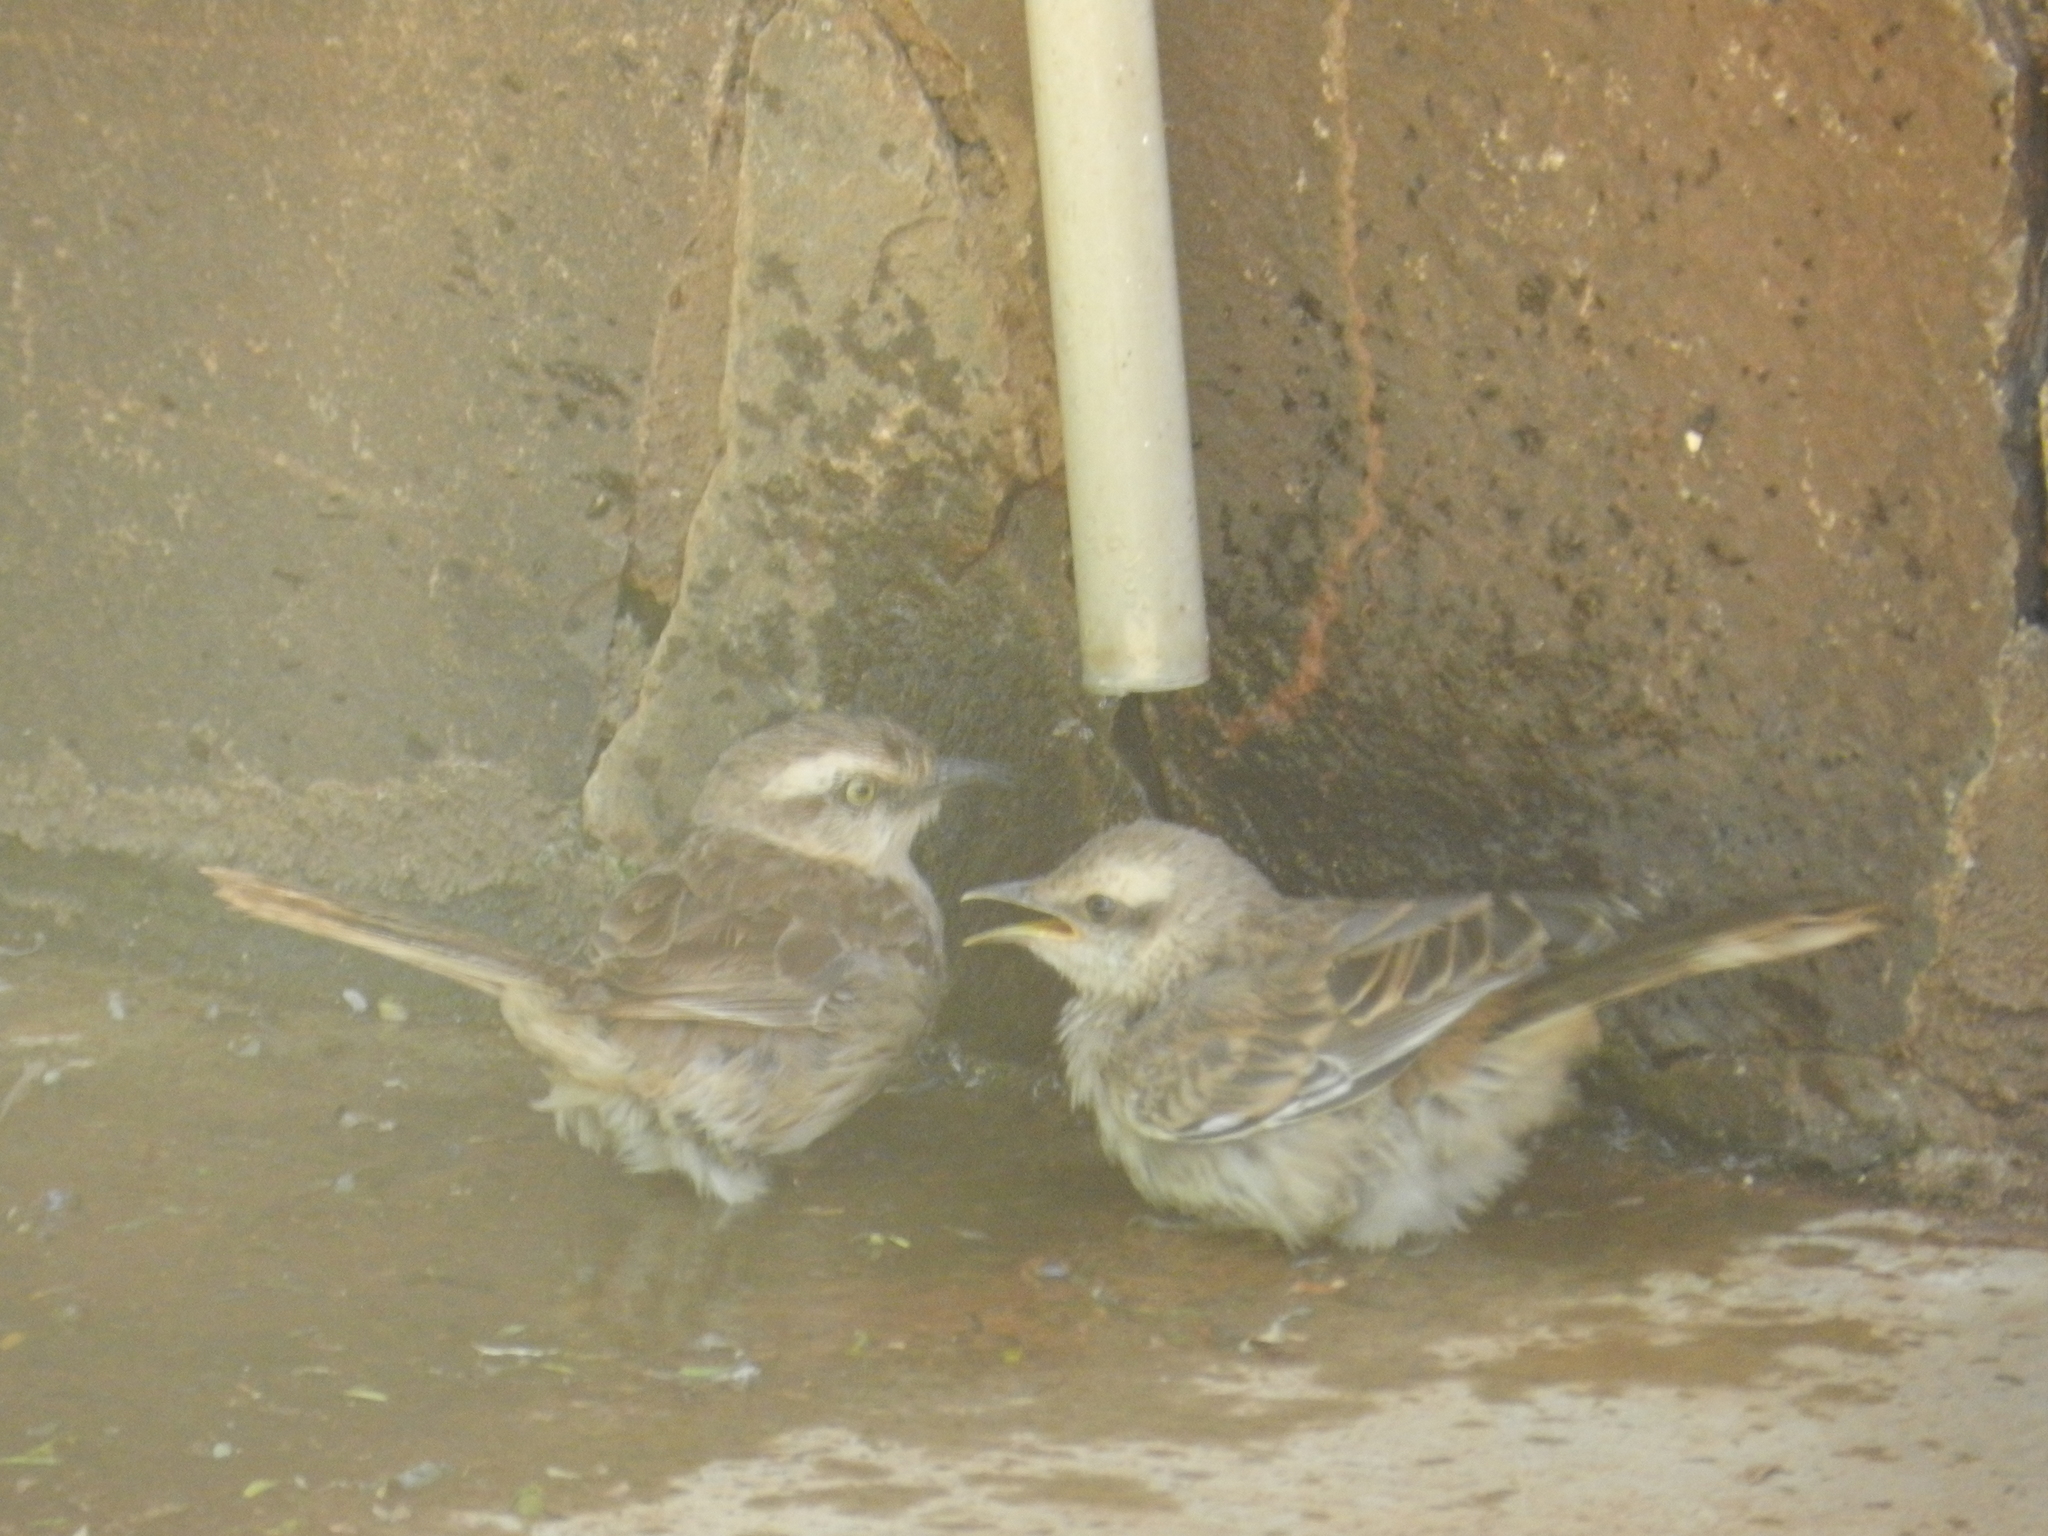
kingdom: Animalia
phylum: Chordata
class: Aves
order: Passeriformes
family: Mimidae
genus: Mimus
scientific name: Mimus saturninus
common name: Chalk-browed mockingbird
